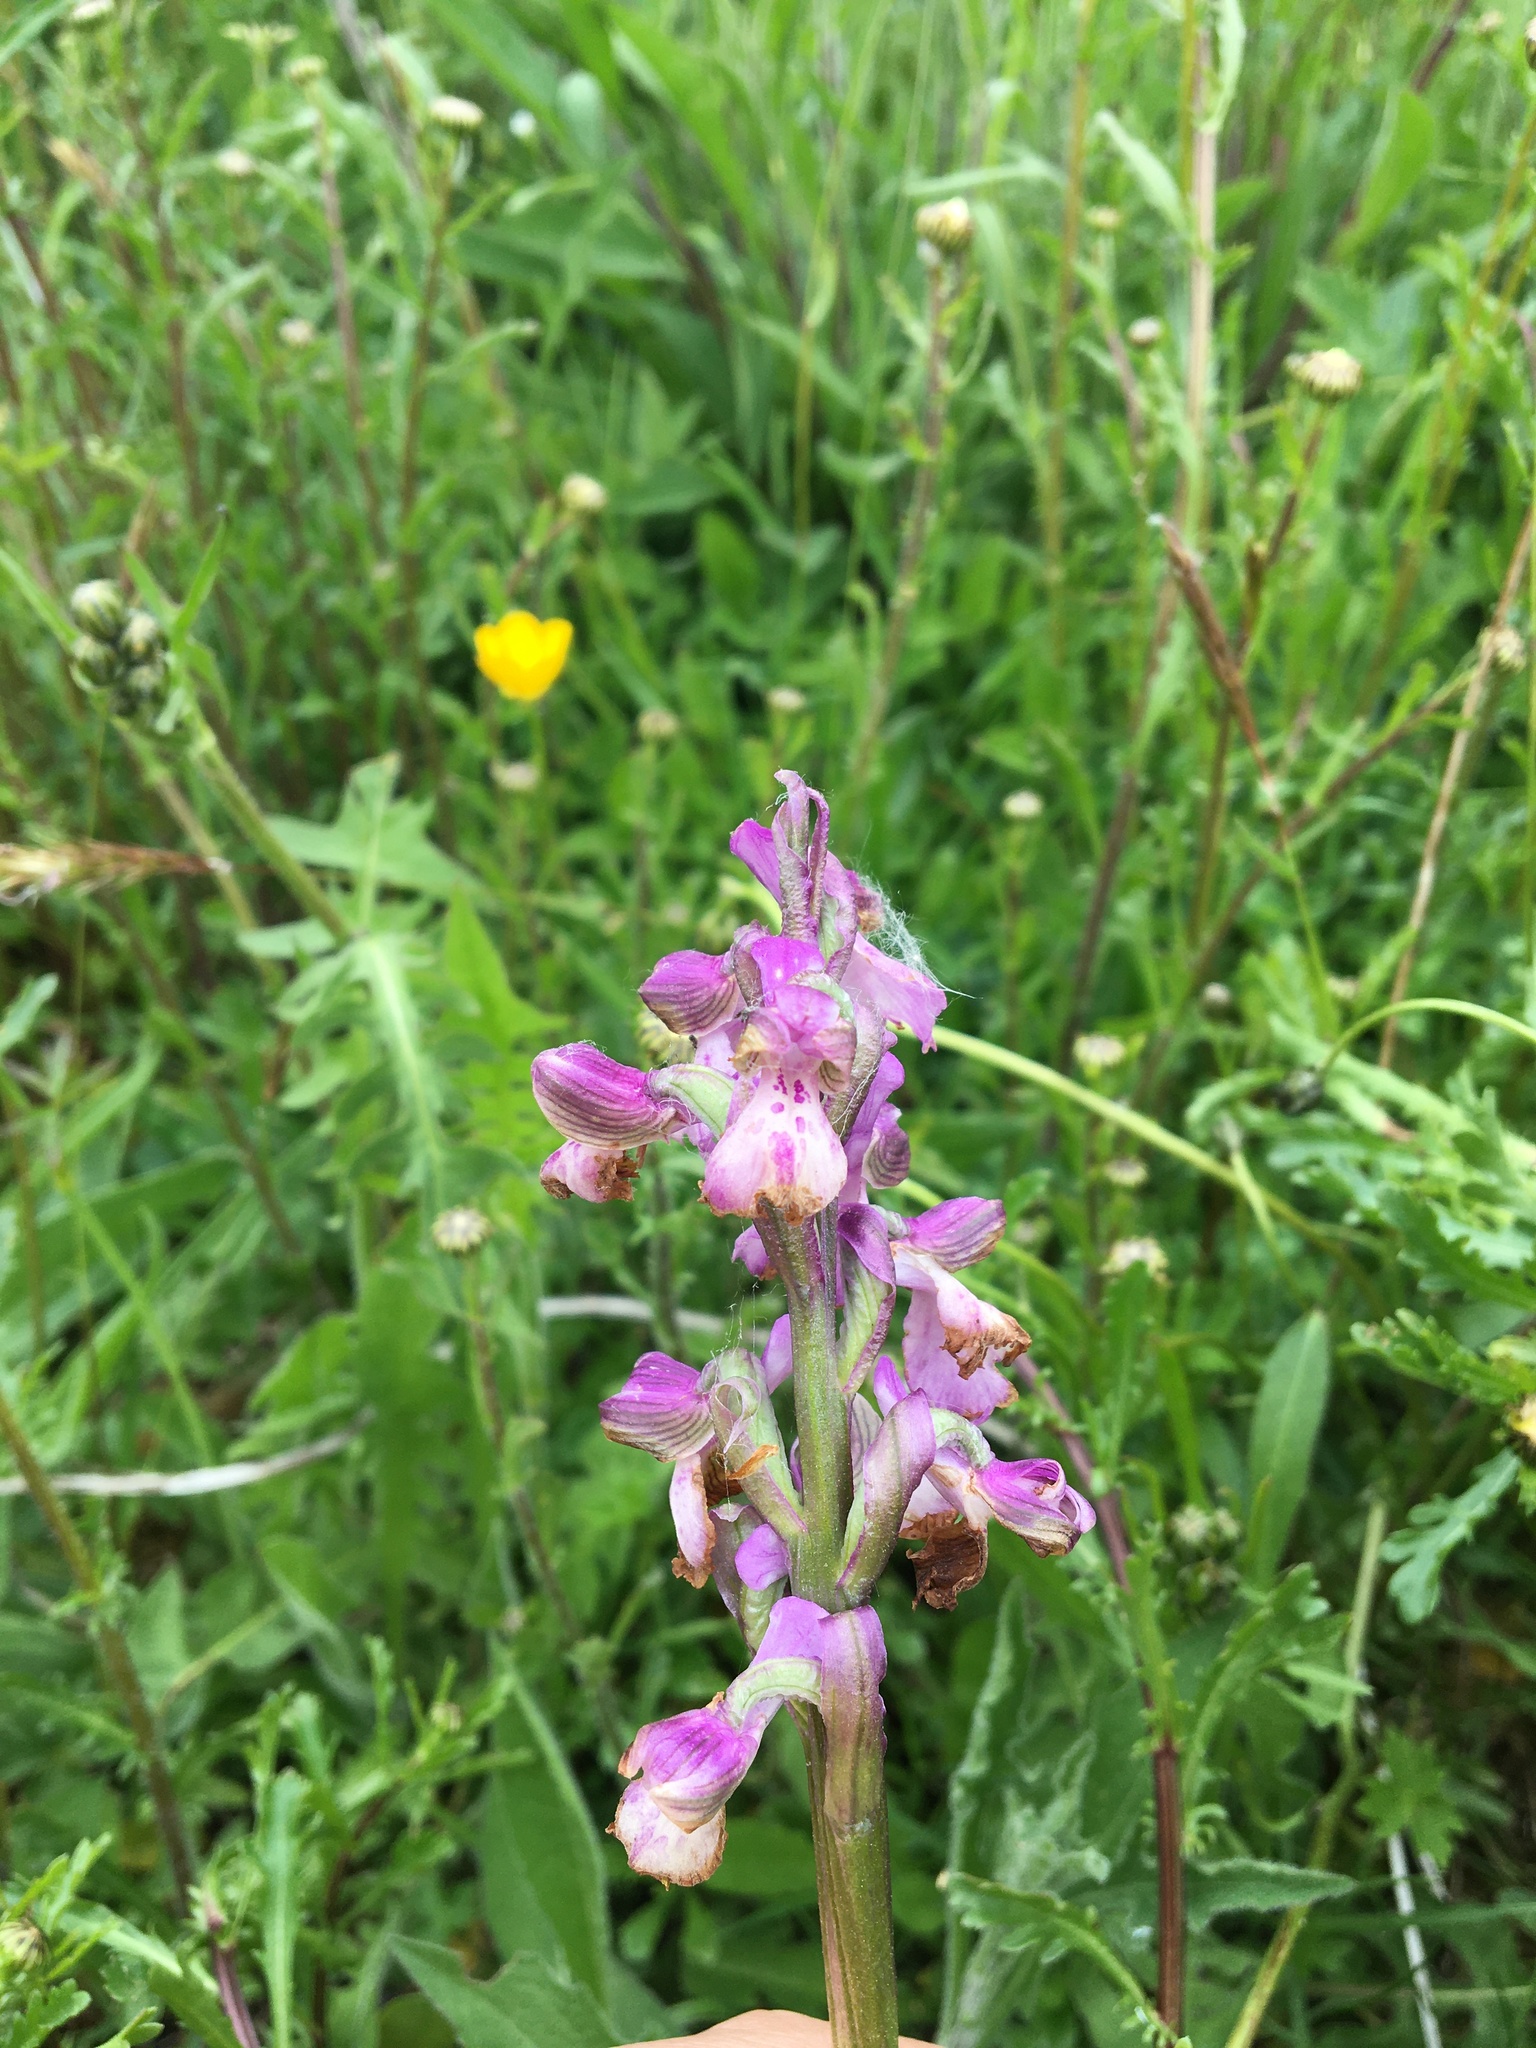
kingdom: Plantae
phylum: Tracheophyta
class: Liliopsida
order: Asparagales
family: Orchidaceae
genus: Anacamptis
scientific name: Anacamptis morio
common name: Green-winged orchid
